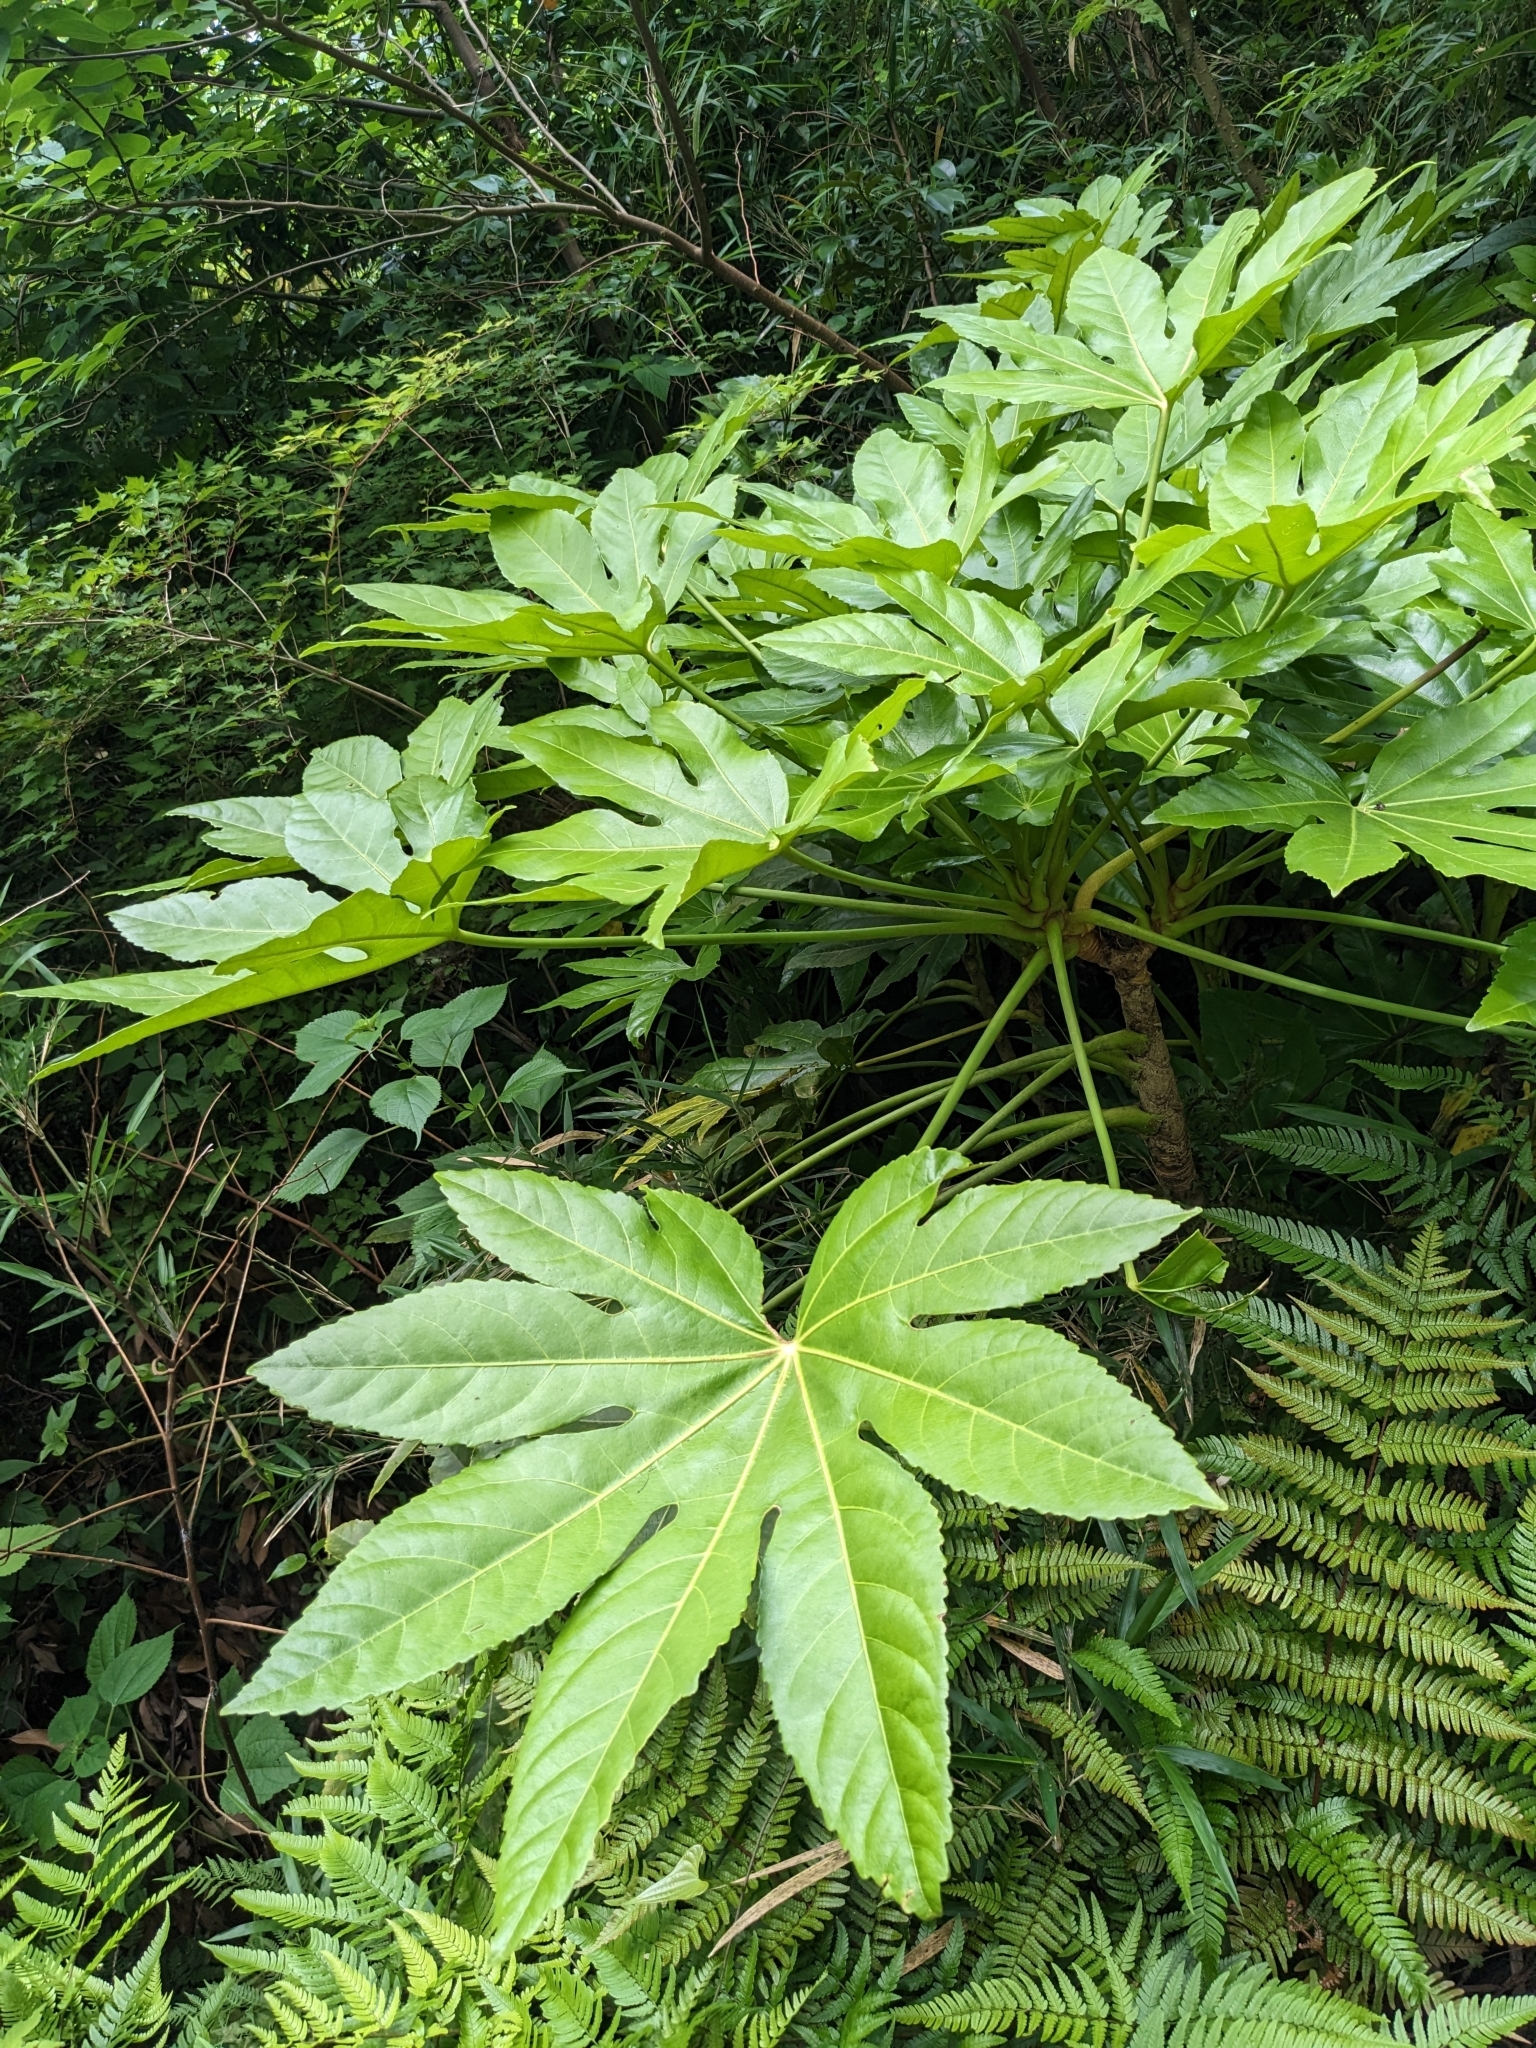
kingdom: Plantae
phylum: Tracheophyta
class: Magnoliopsida
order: Apiales
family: Araliaceae
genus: Fatsia
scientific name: Fatsia japonica
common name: Fatsia
